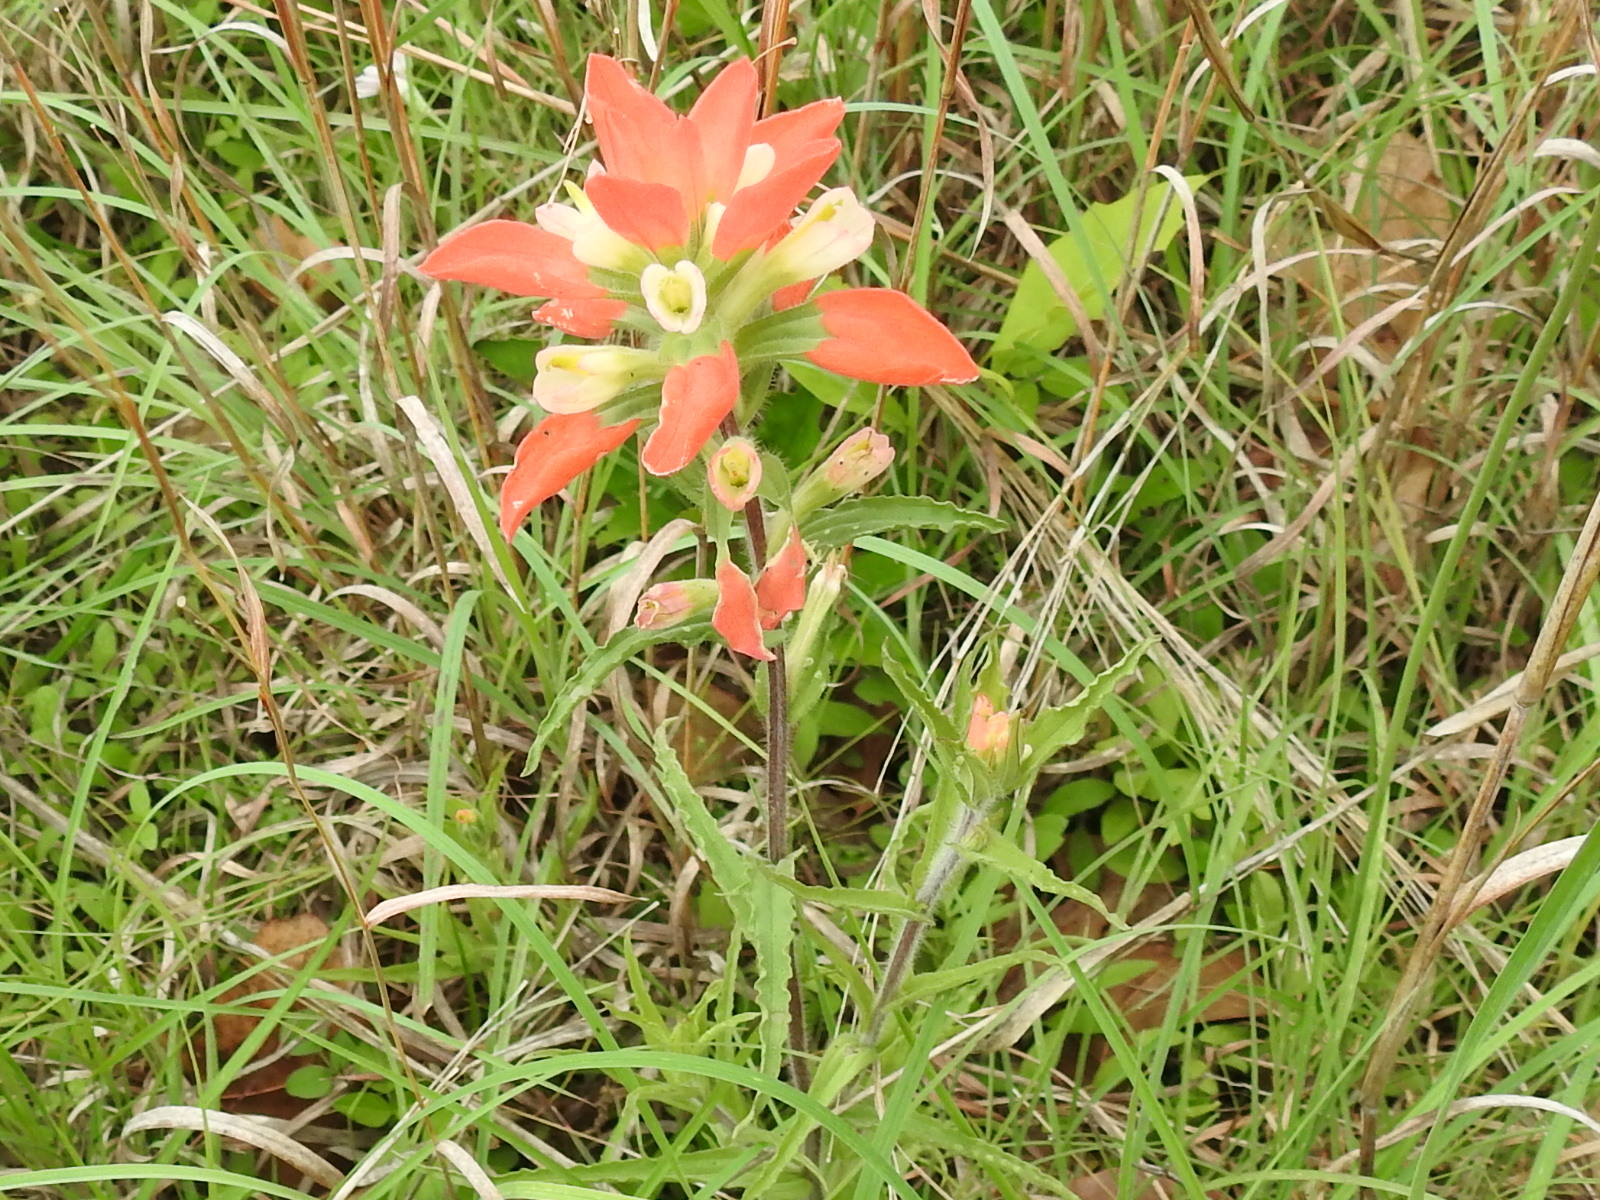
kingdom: Plantae
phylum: Tracheophyta
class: Magnoliopsida
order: Lamiales
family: Orobanchaceae
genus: Castilleja
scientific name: Castilleja indivisa
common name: Texas paintbrush
